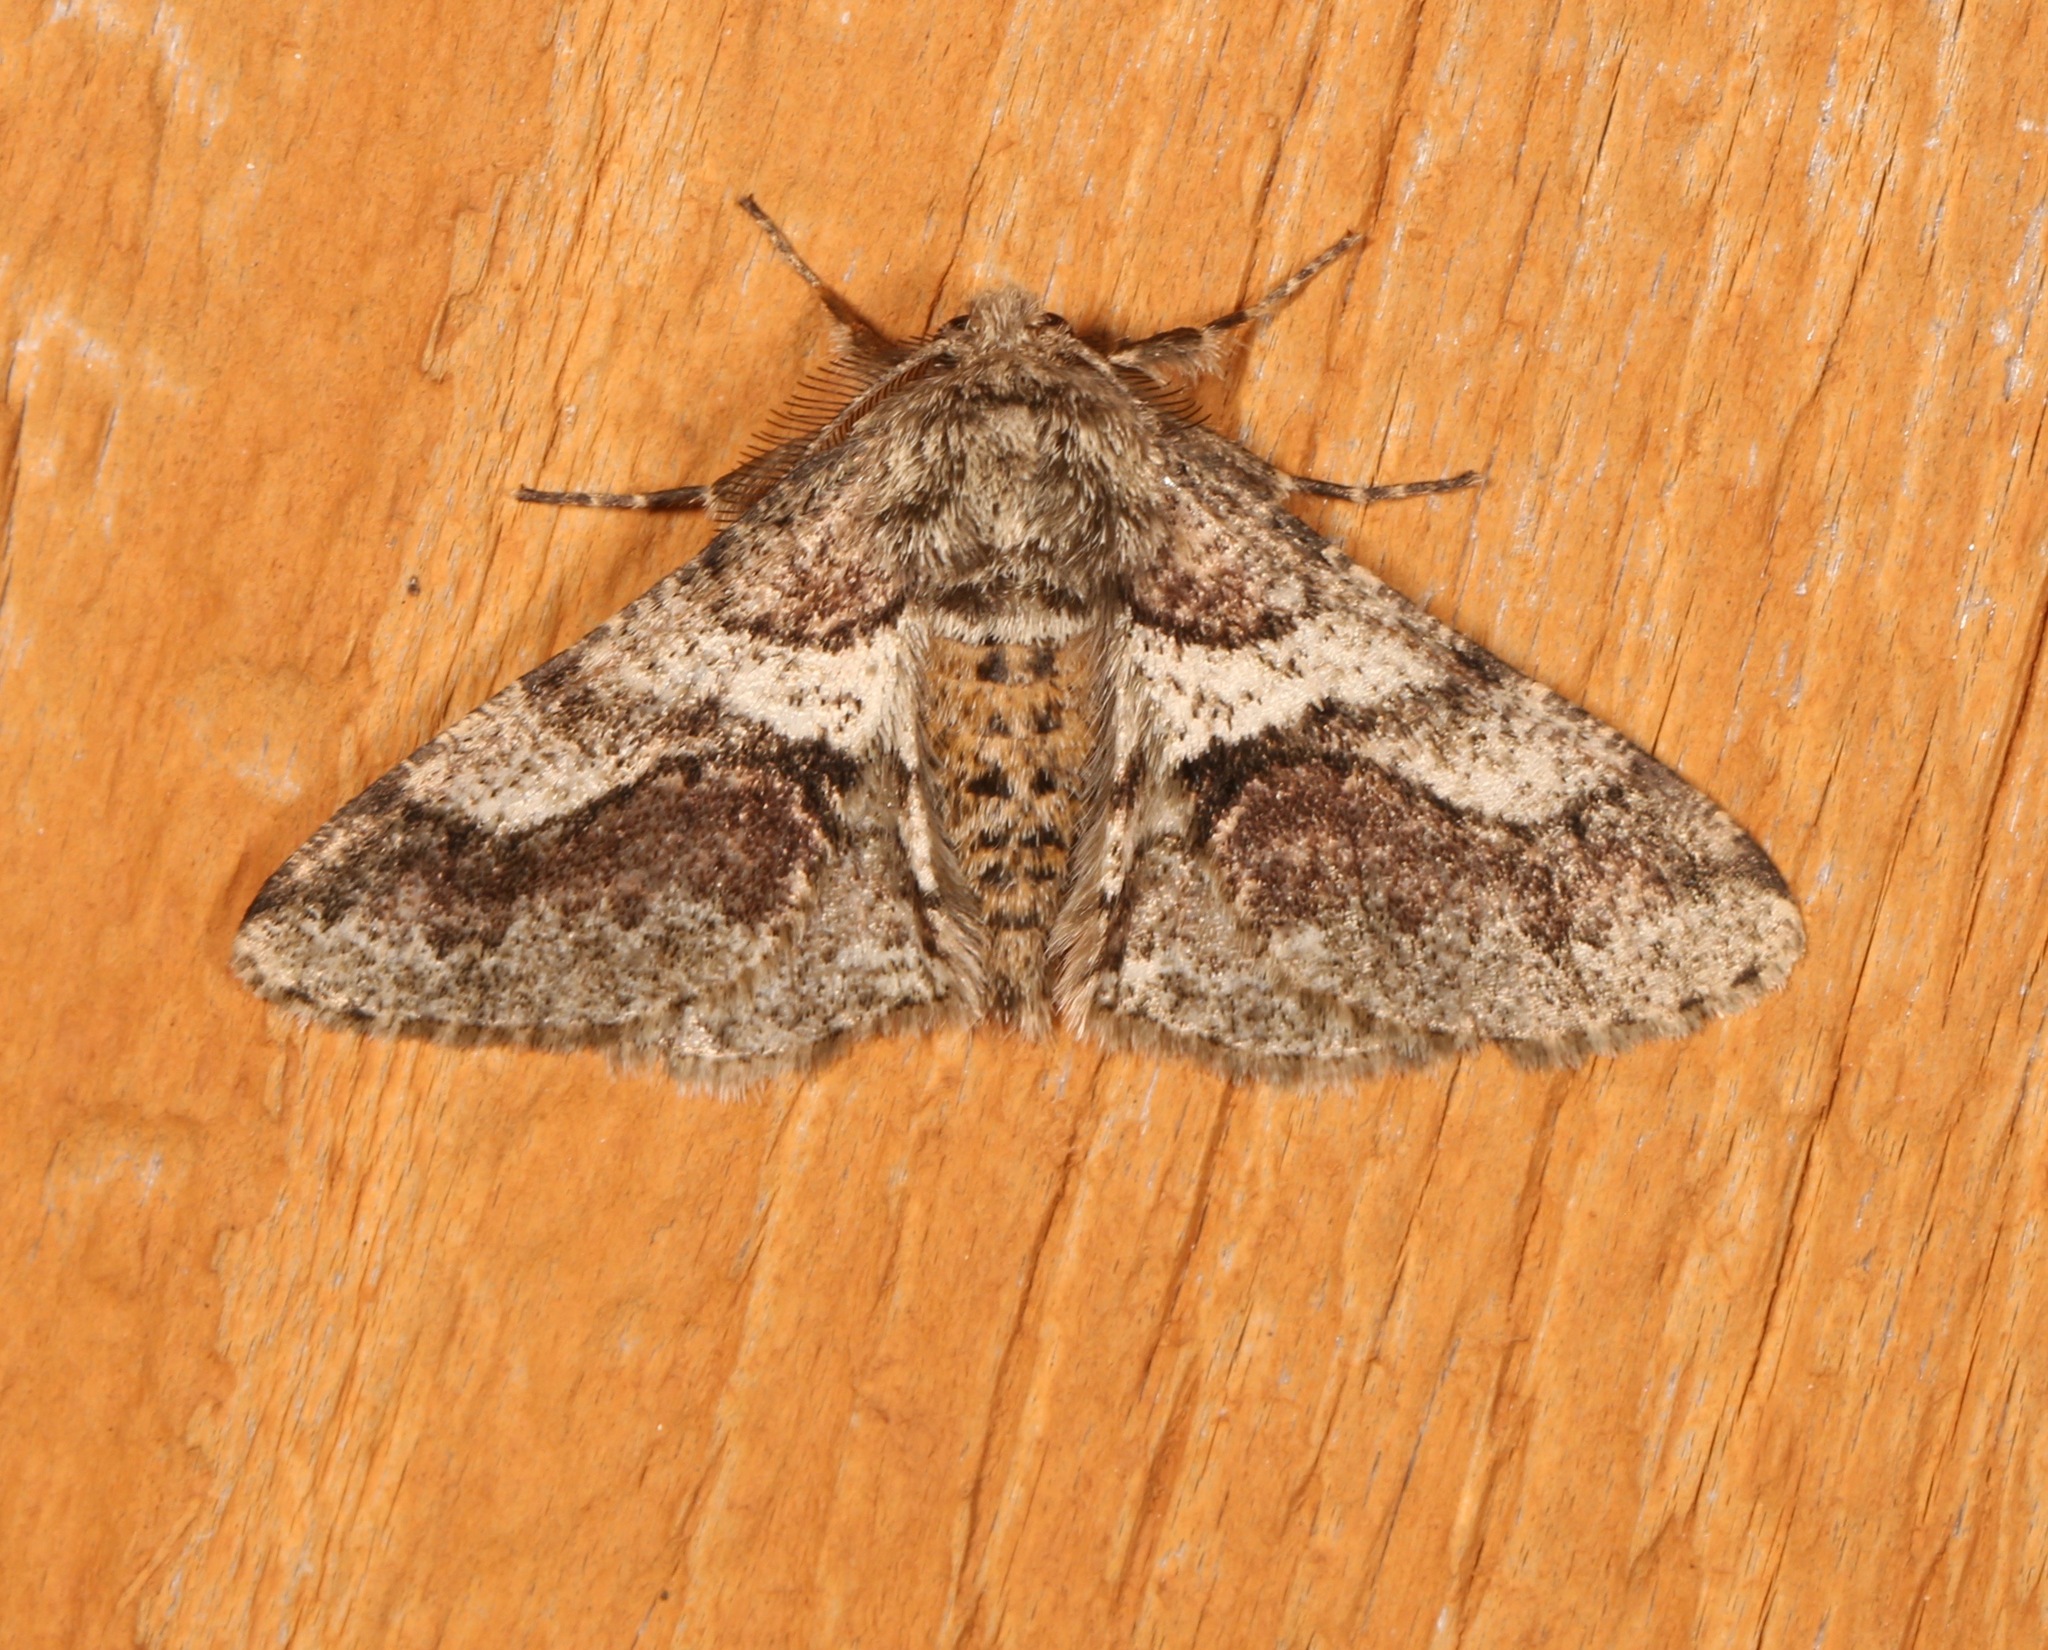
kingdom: Animalia
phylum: Arthropoda
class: Insecta
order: Lepidoptera
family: Geometridae
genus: Lycia
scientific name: Lycia ypsilon
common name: Wooly gray
